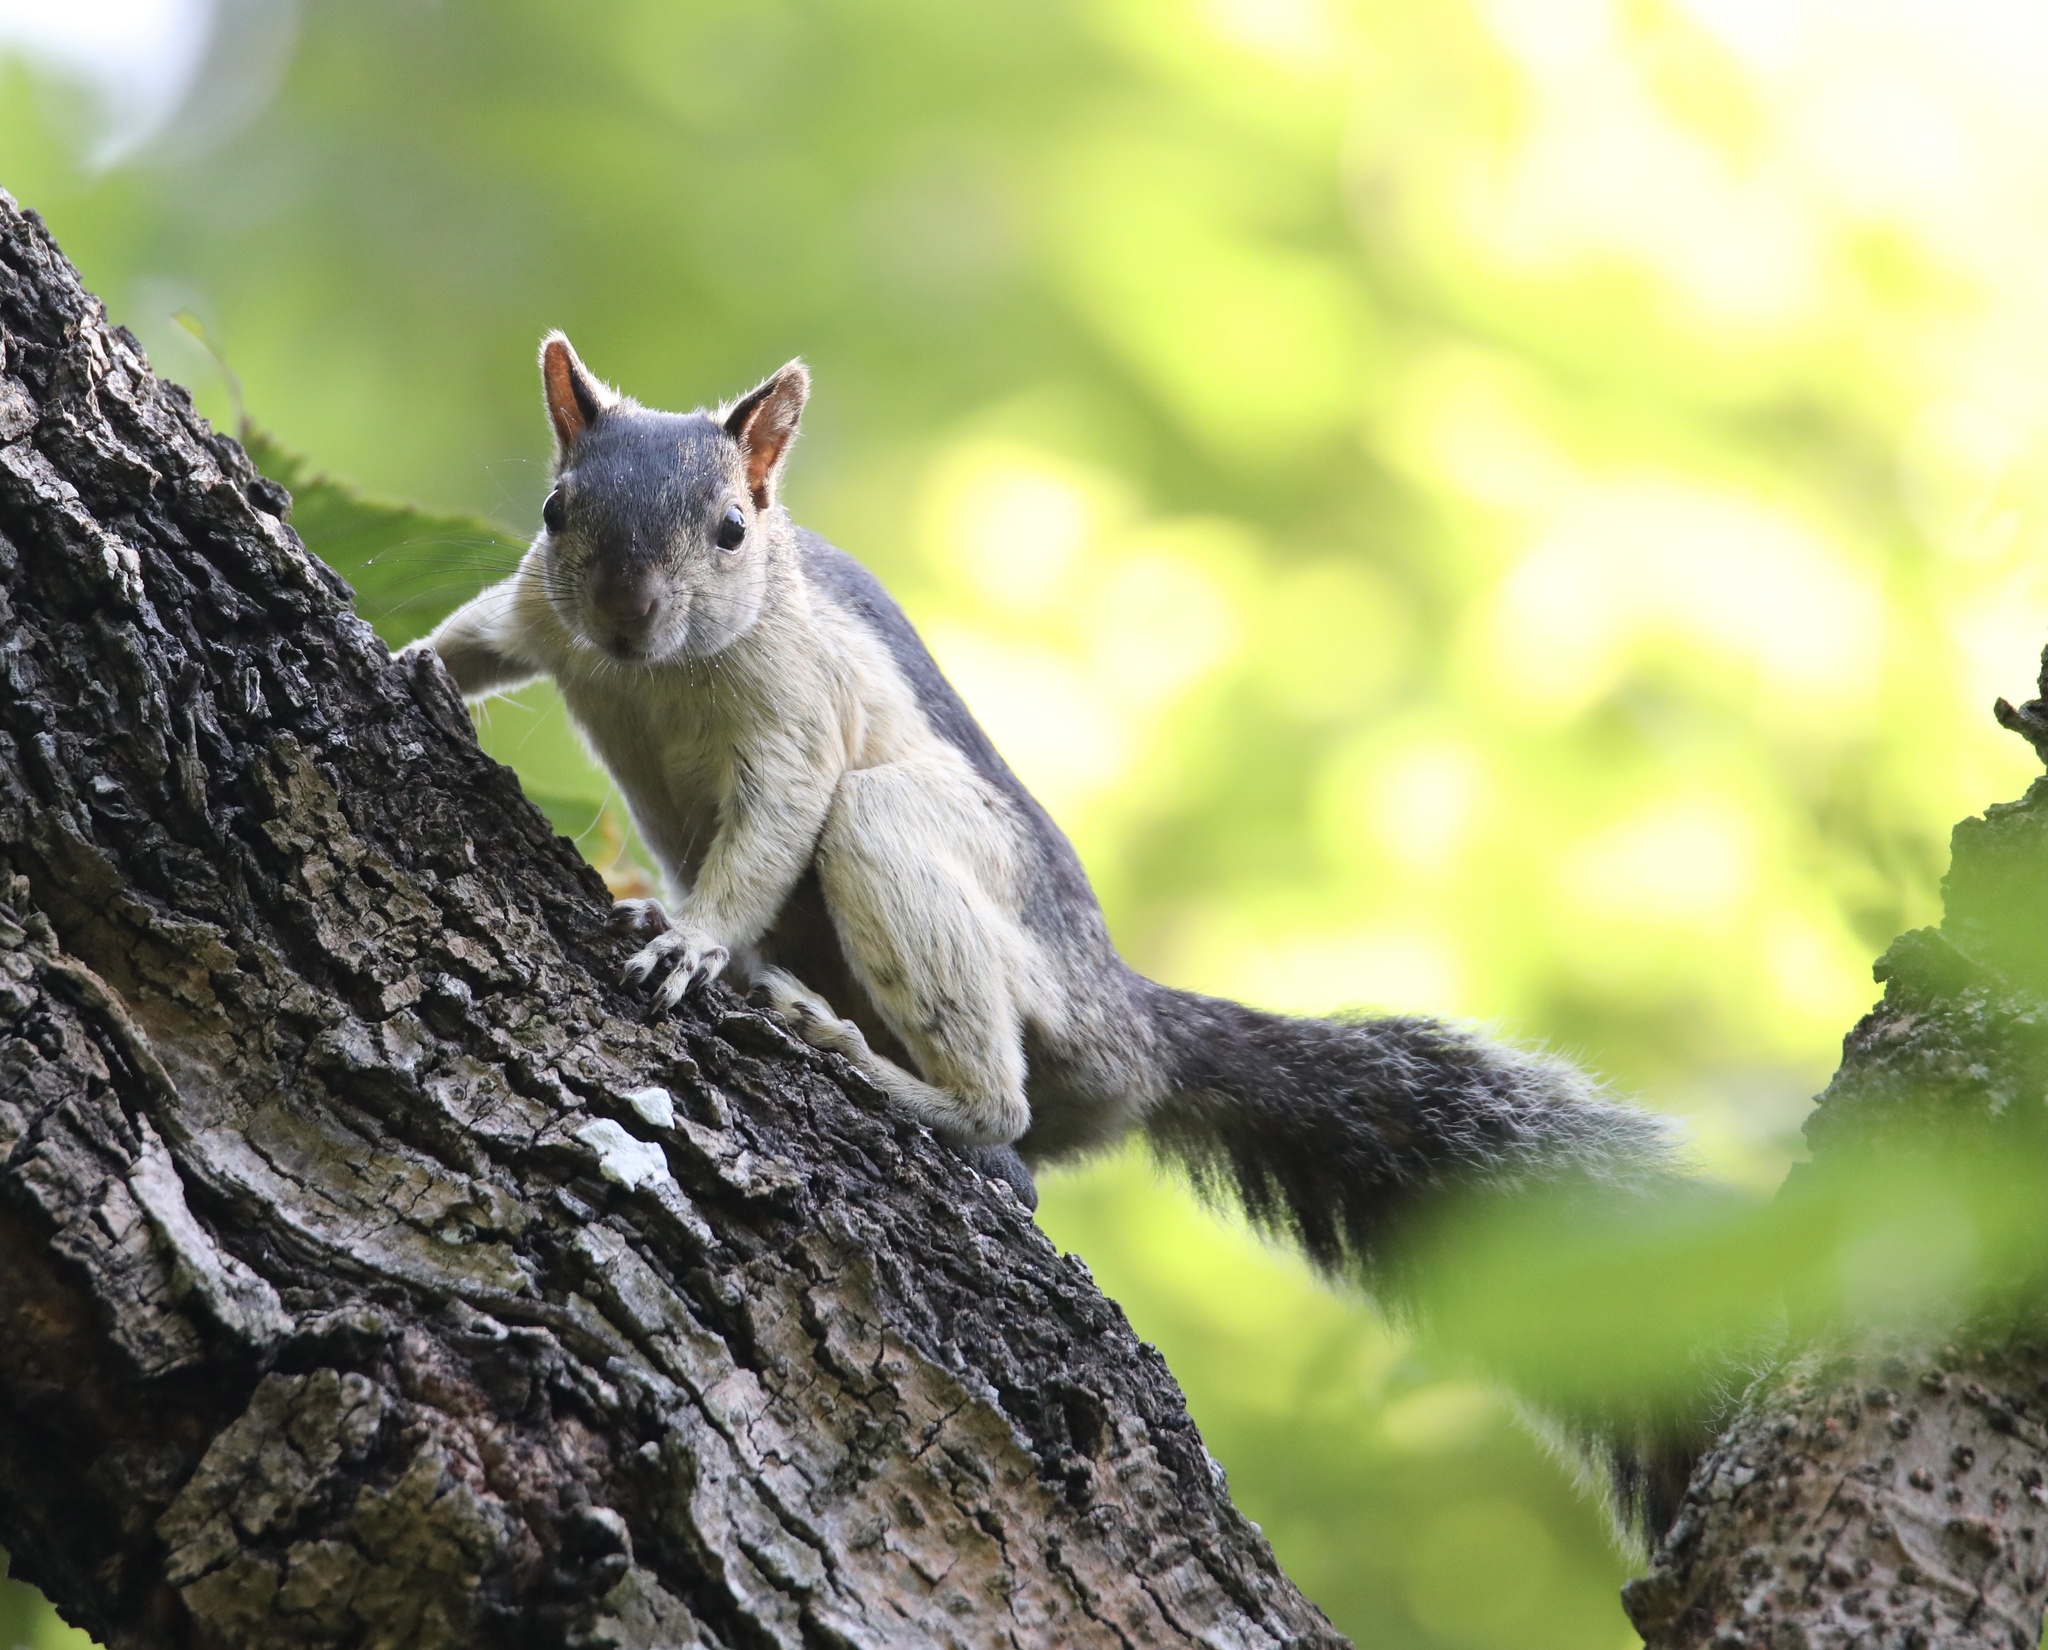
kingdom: Animalia
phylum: Chordata
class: Mammalia
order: Rodentia
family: Sciuridae
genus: Sciurus
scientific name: Sciurus variegatoides
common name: Variegated squirrel
